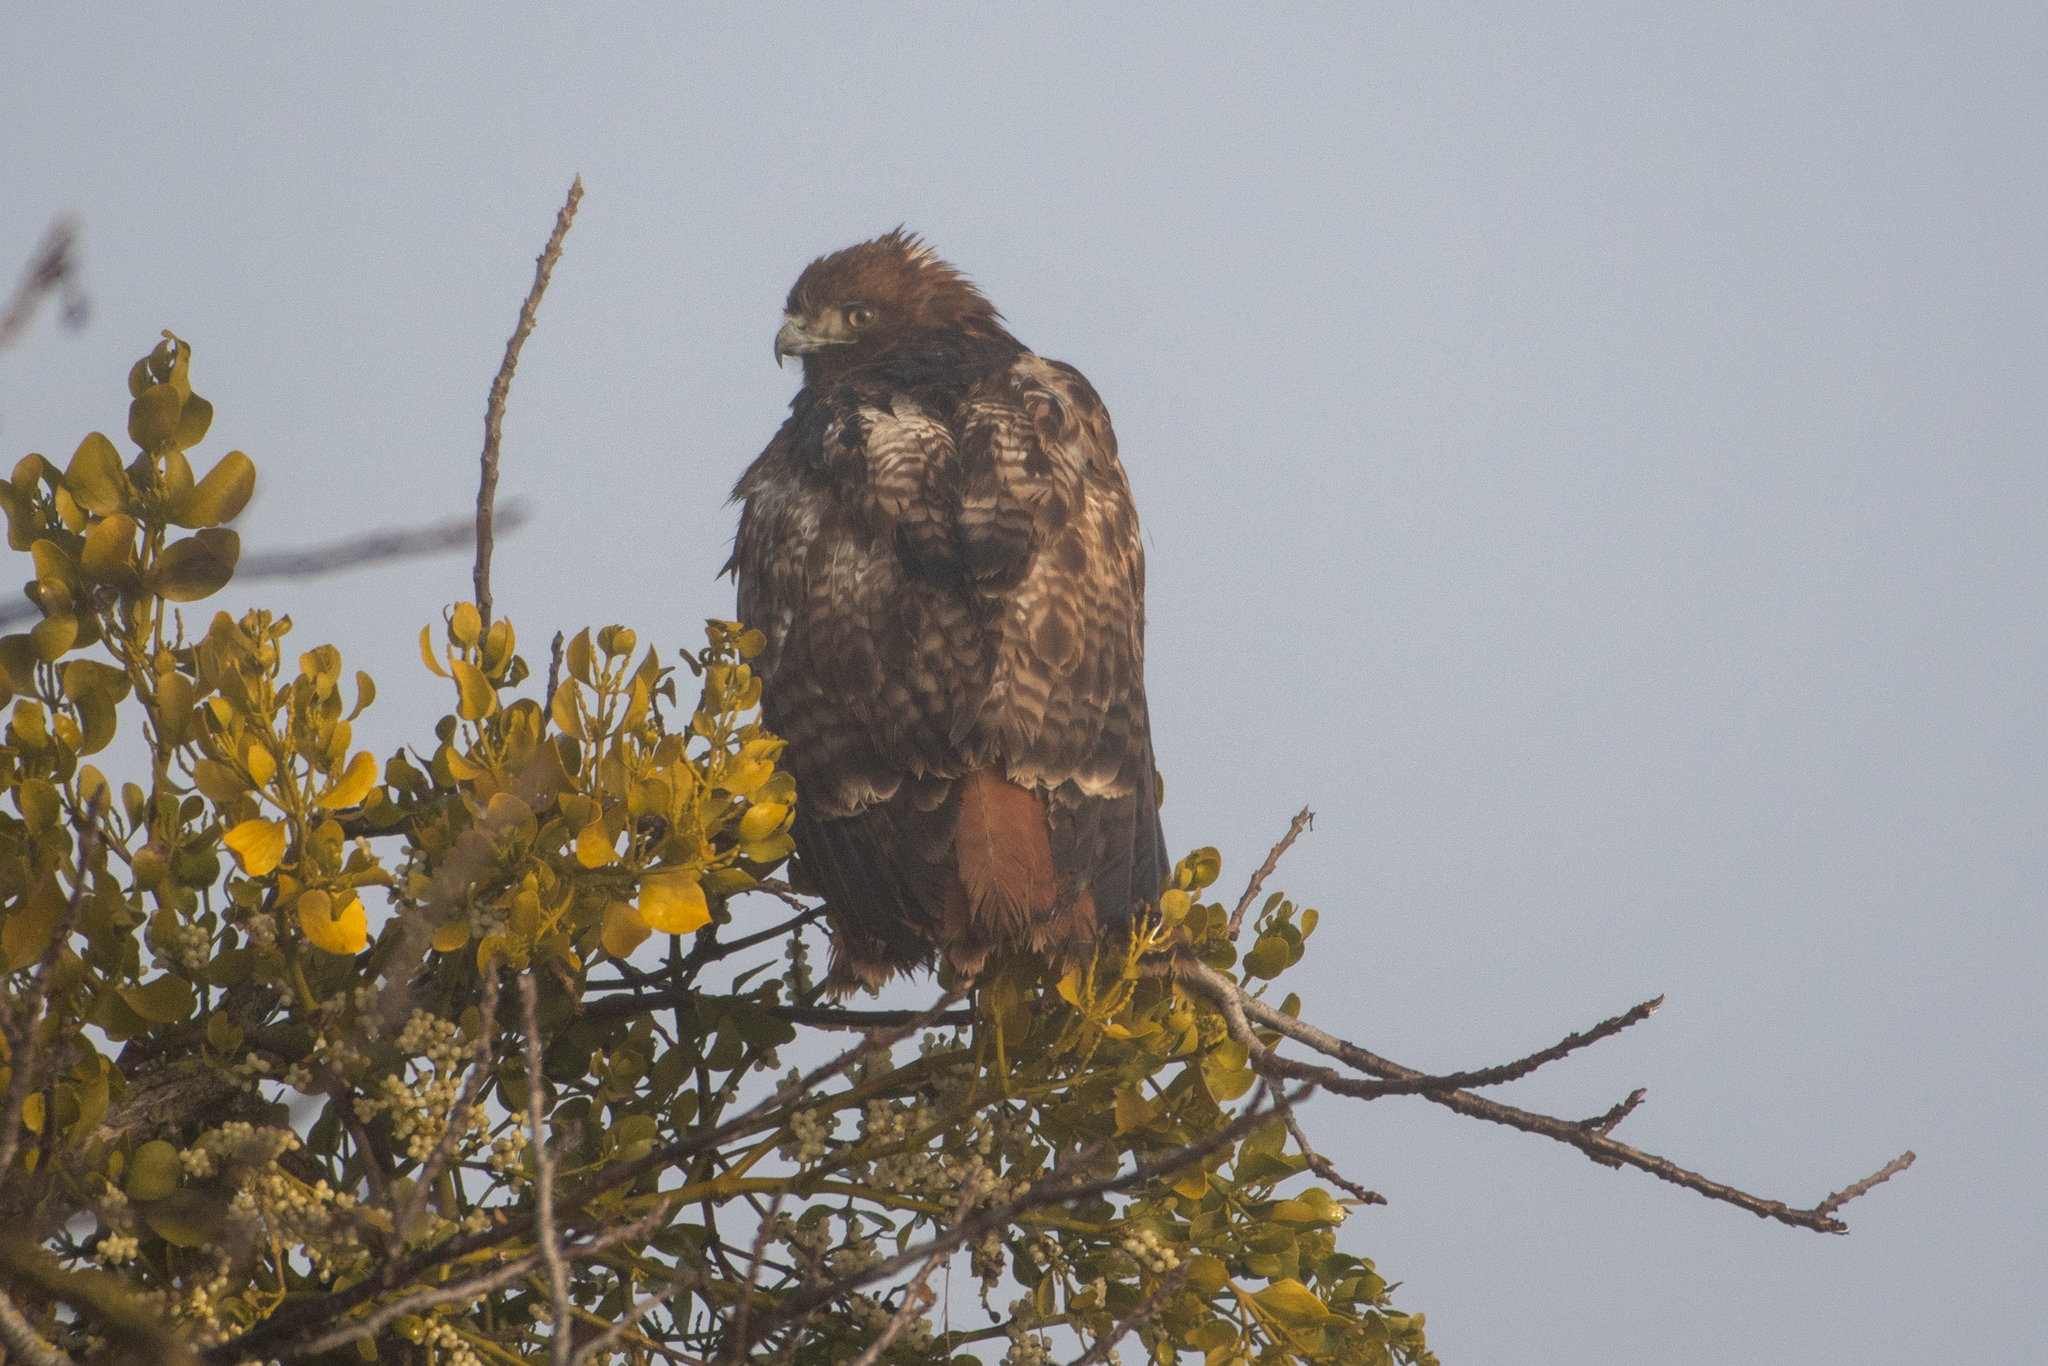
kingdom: Animalia
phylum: Chordata
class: Aves
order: Accipitriformes
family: Accipitridae
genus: Buteo
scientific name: Buteo jamaicensis
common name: Red-tailed hawk
